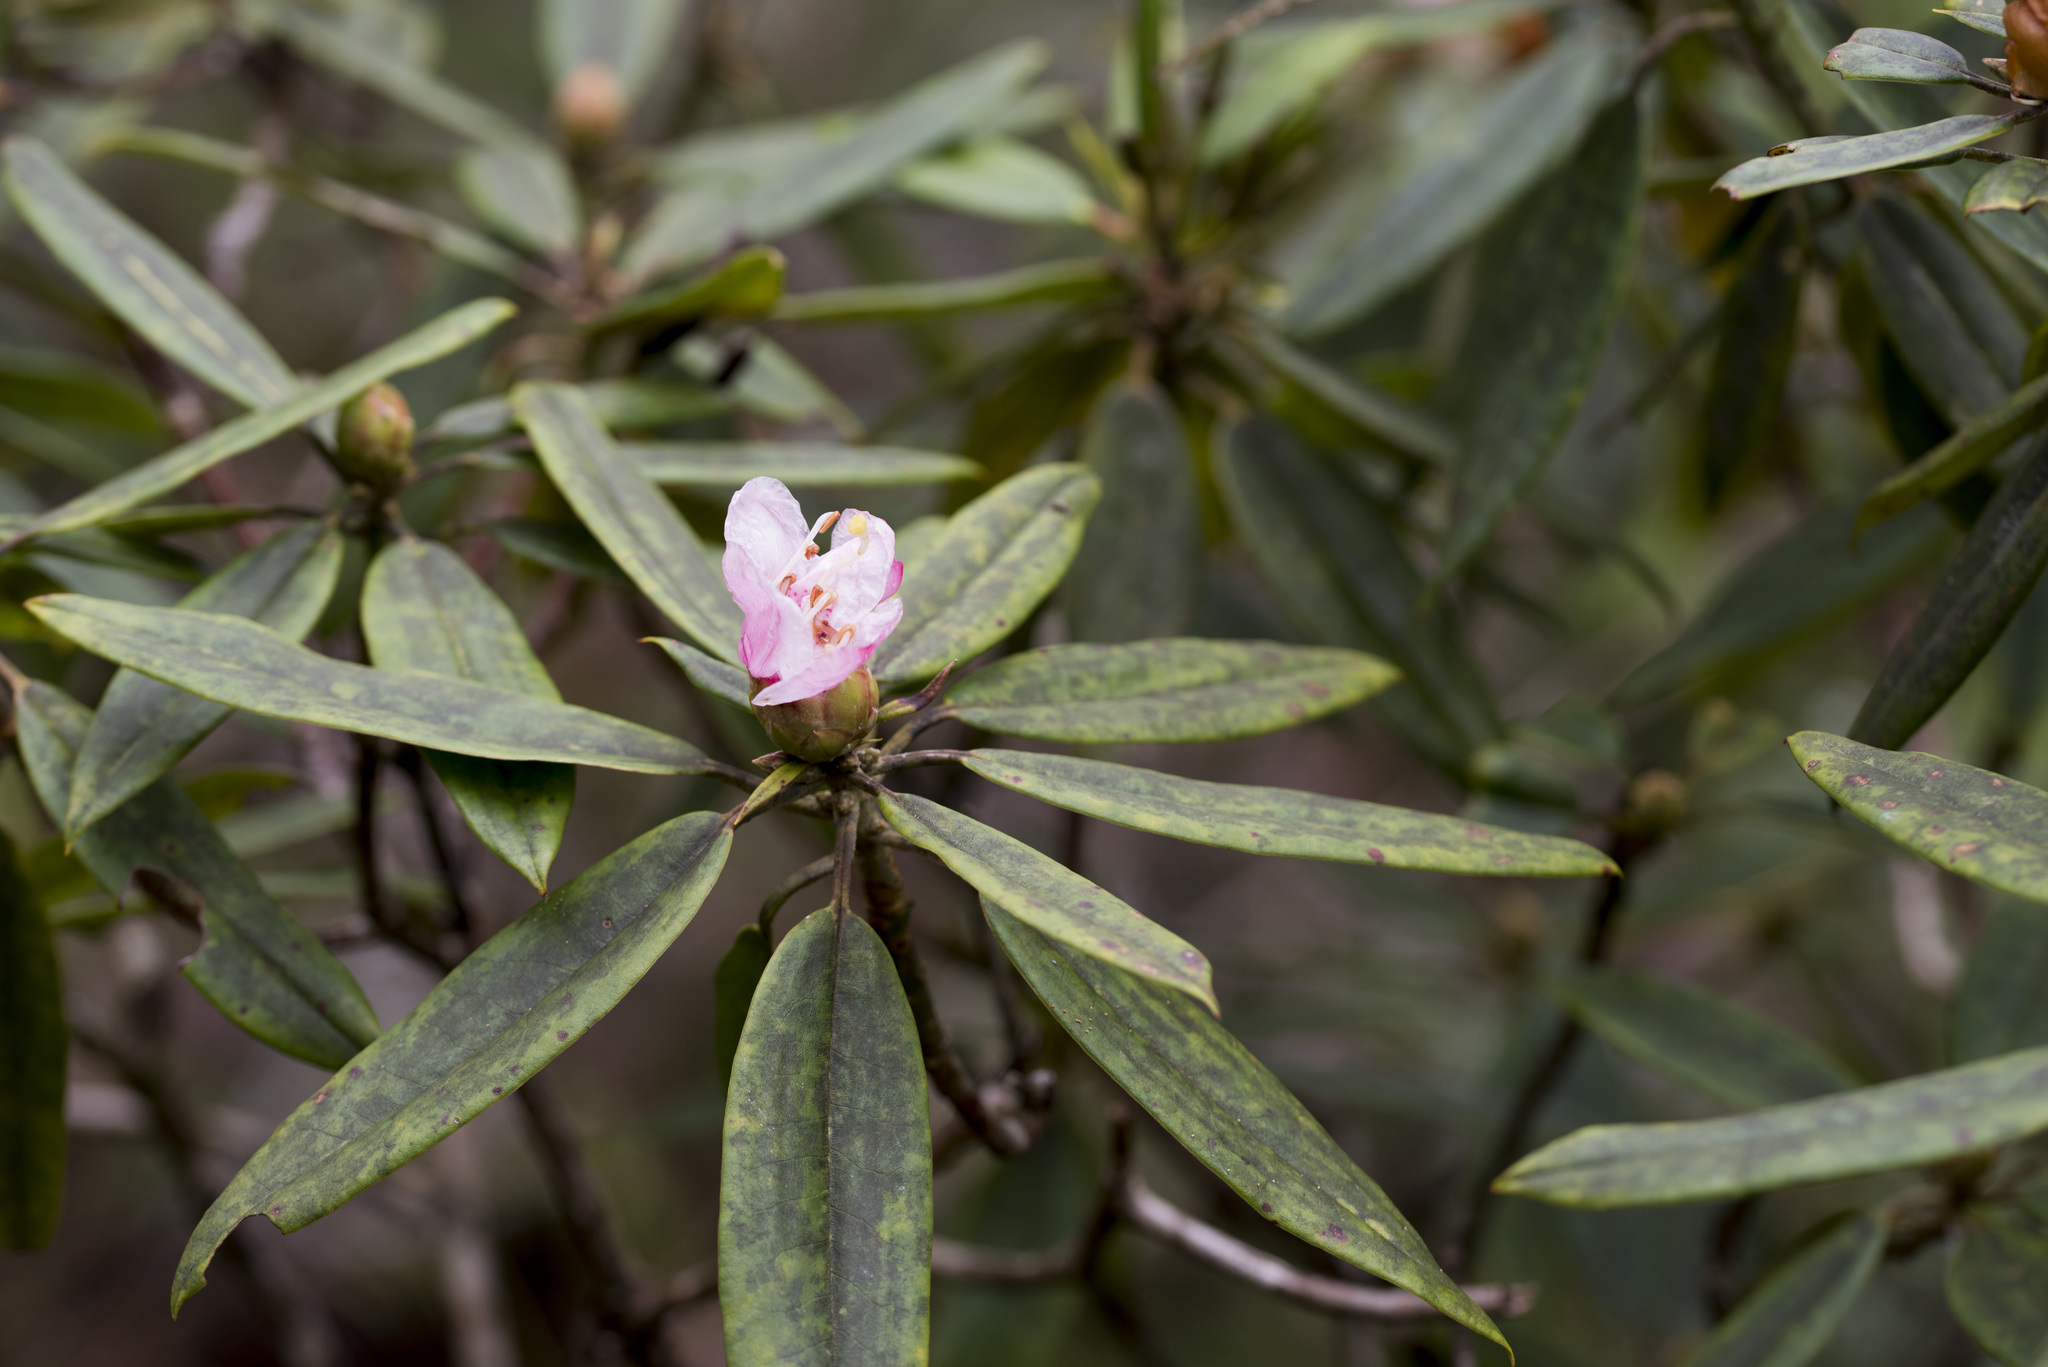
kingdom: Plantae
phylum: Tracheophyta
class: Magnoliopsida
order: Ericales
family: Ericaceae
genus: Rhododendron
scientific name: Rhododendron pseudochrysanthum
